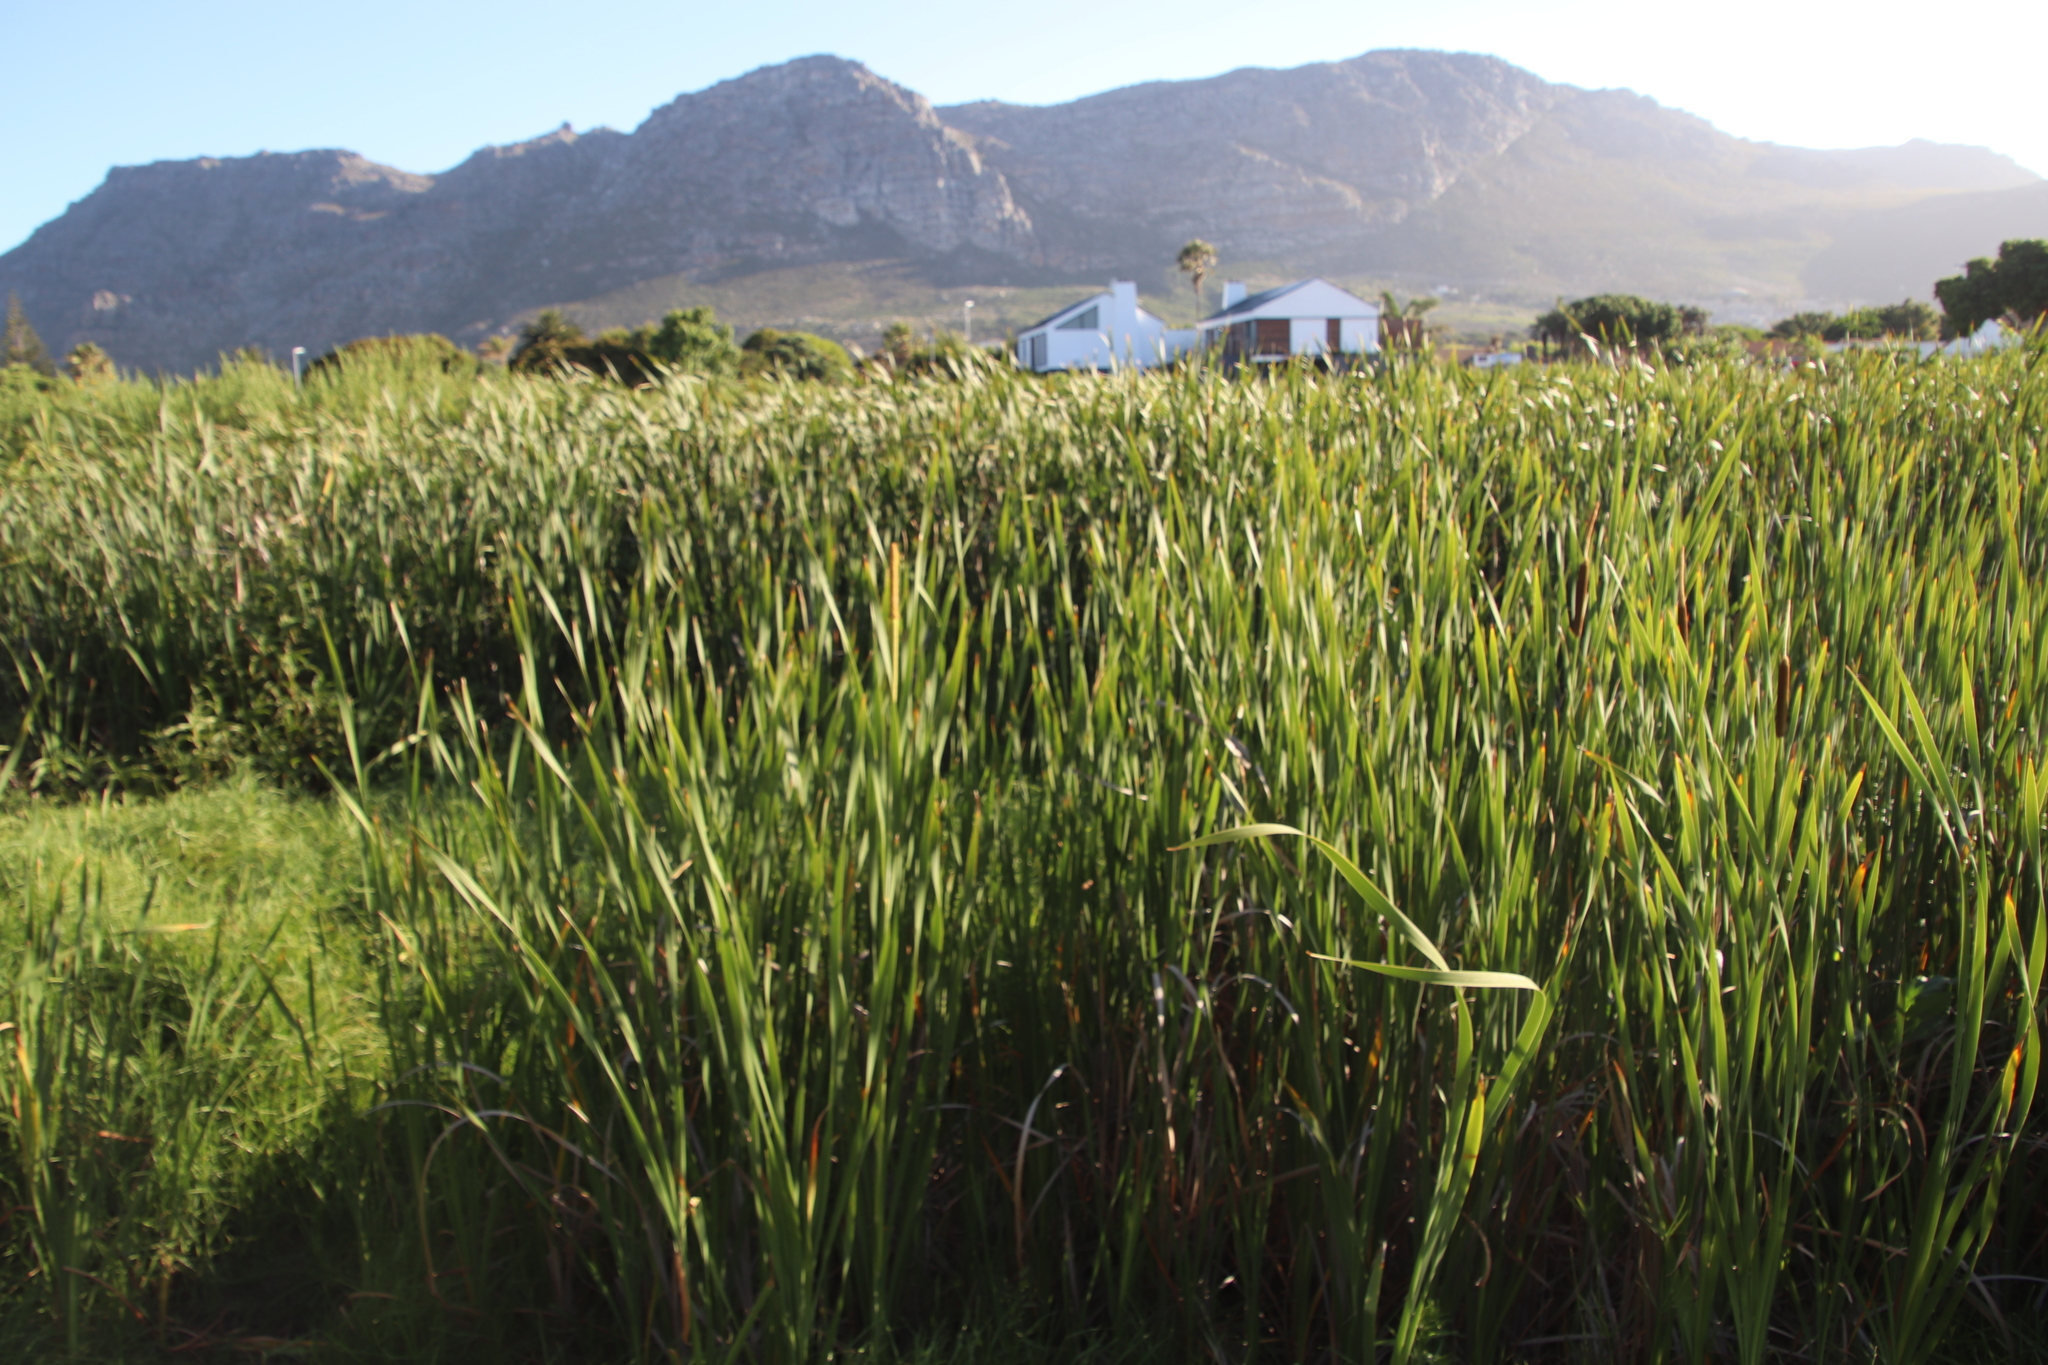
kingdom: Plantae
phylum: Tracheophyta
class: Liliopsida
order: Poales
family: Typhaceae
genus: Typha
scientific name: Typha capensis
